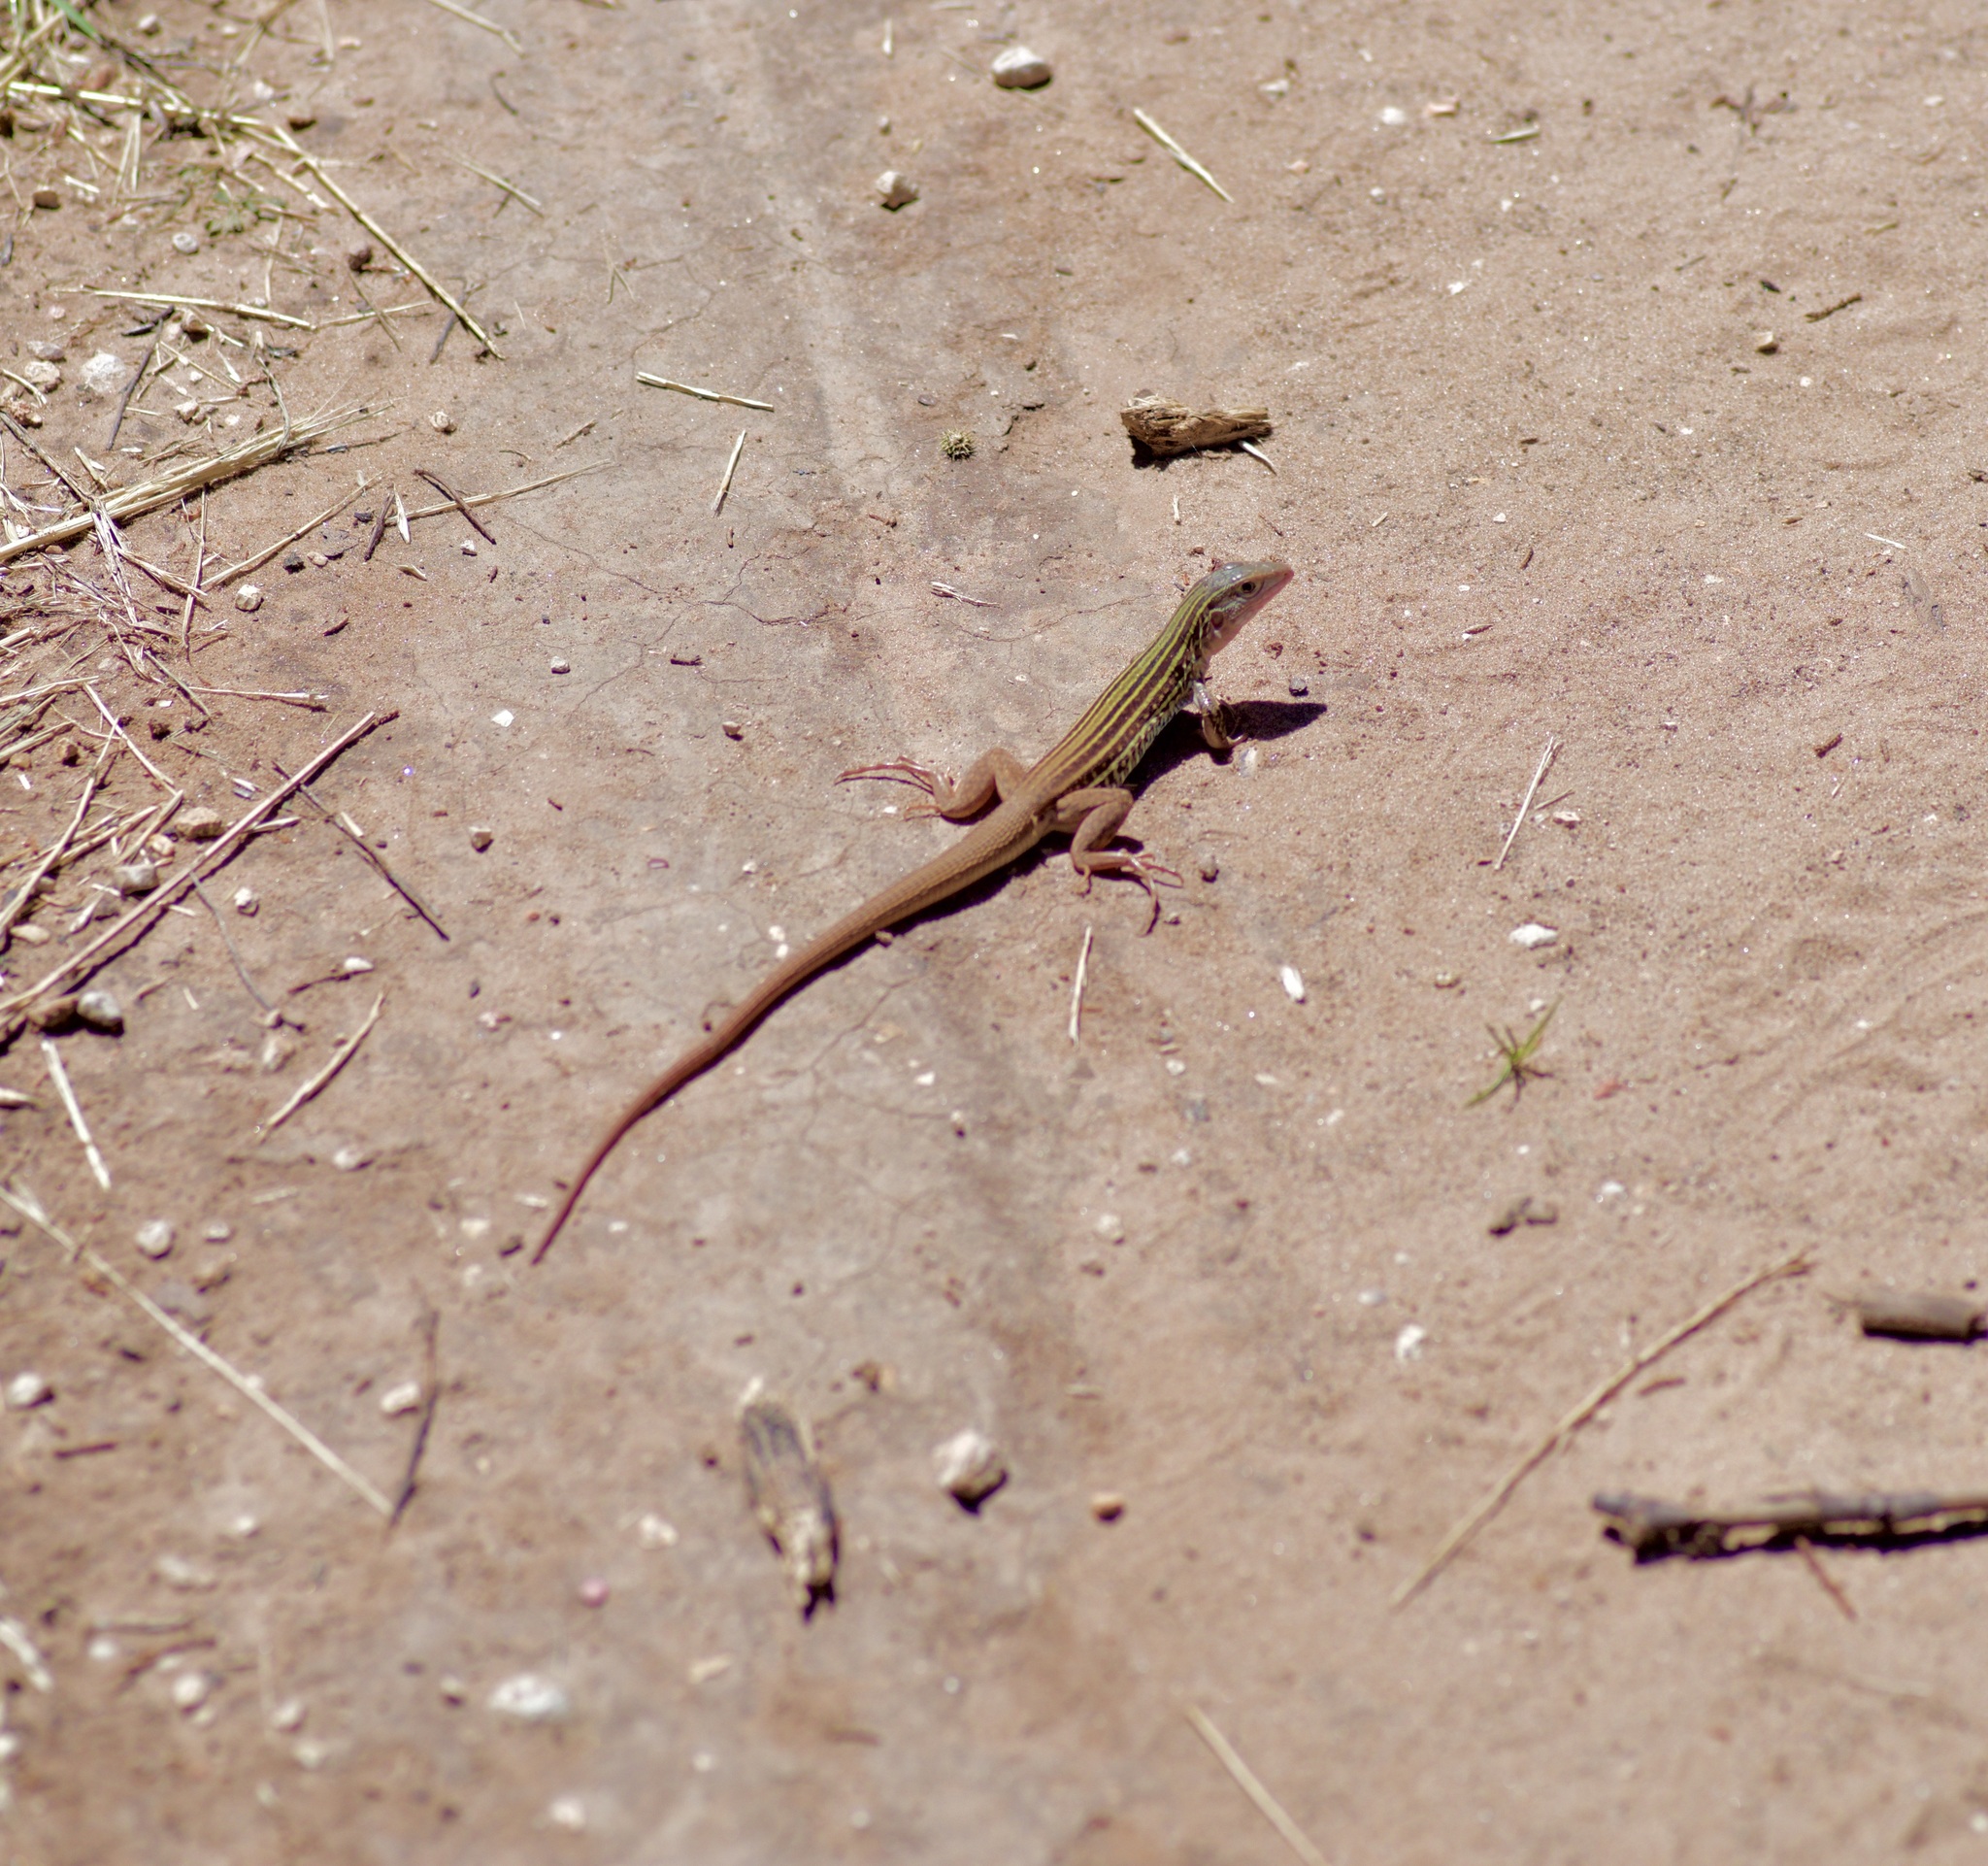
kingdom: Animalia
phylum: Chordata
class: Squamata
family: Teiidae
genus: Aspidoscelis
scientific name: Aspidoscelis gularis
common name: Eastern spotted whiptail
